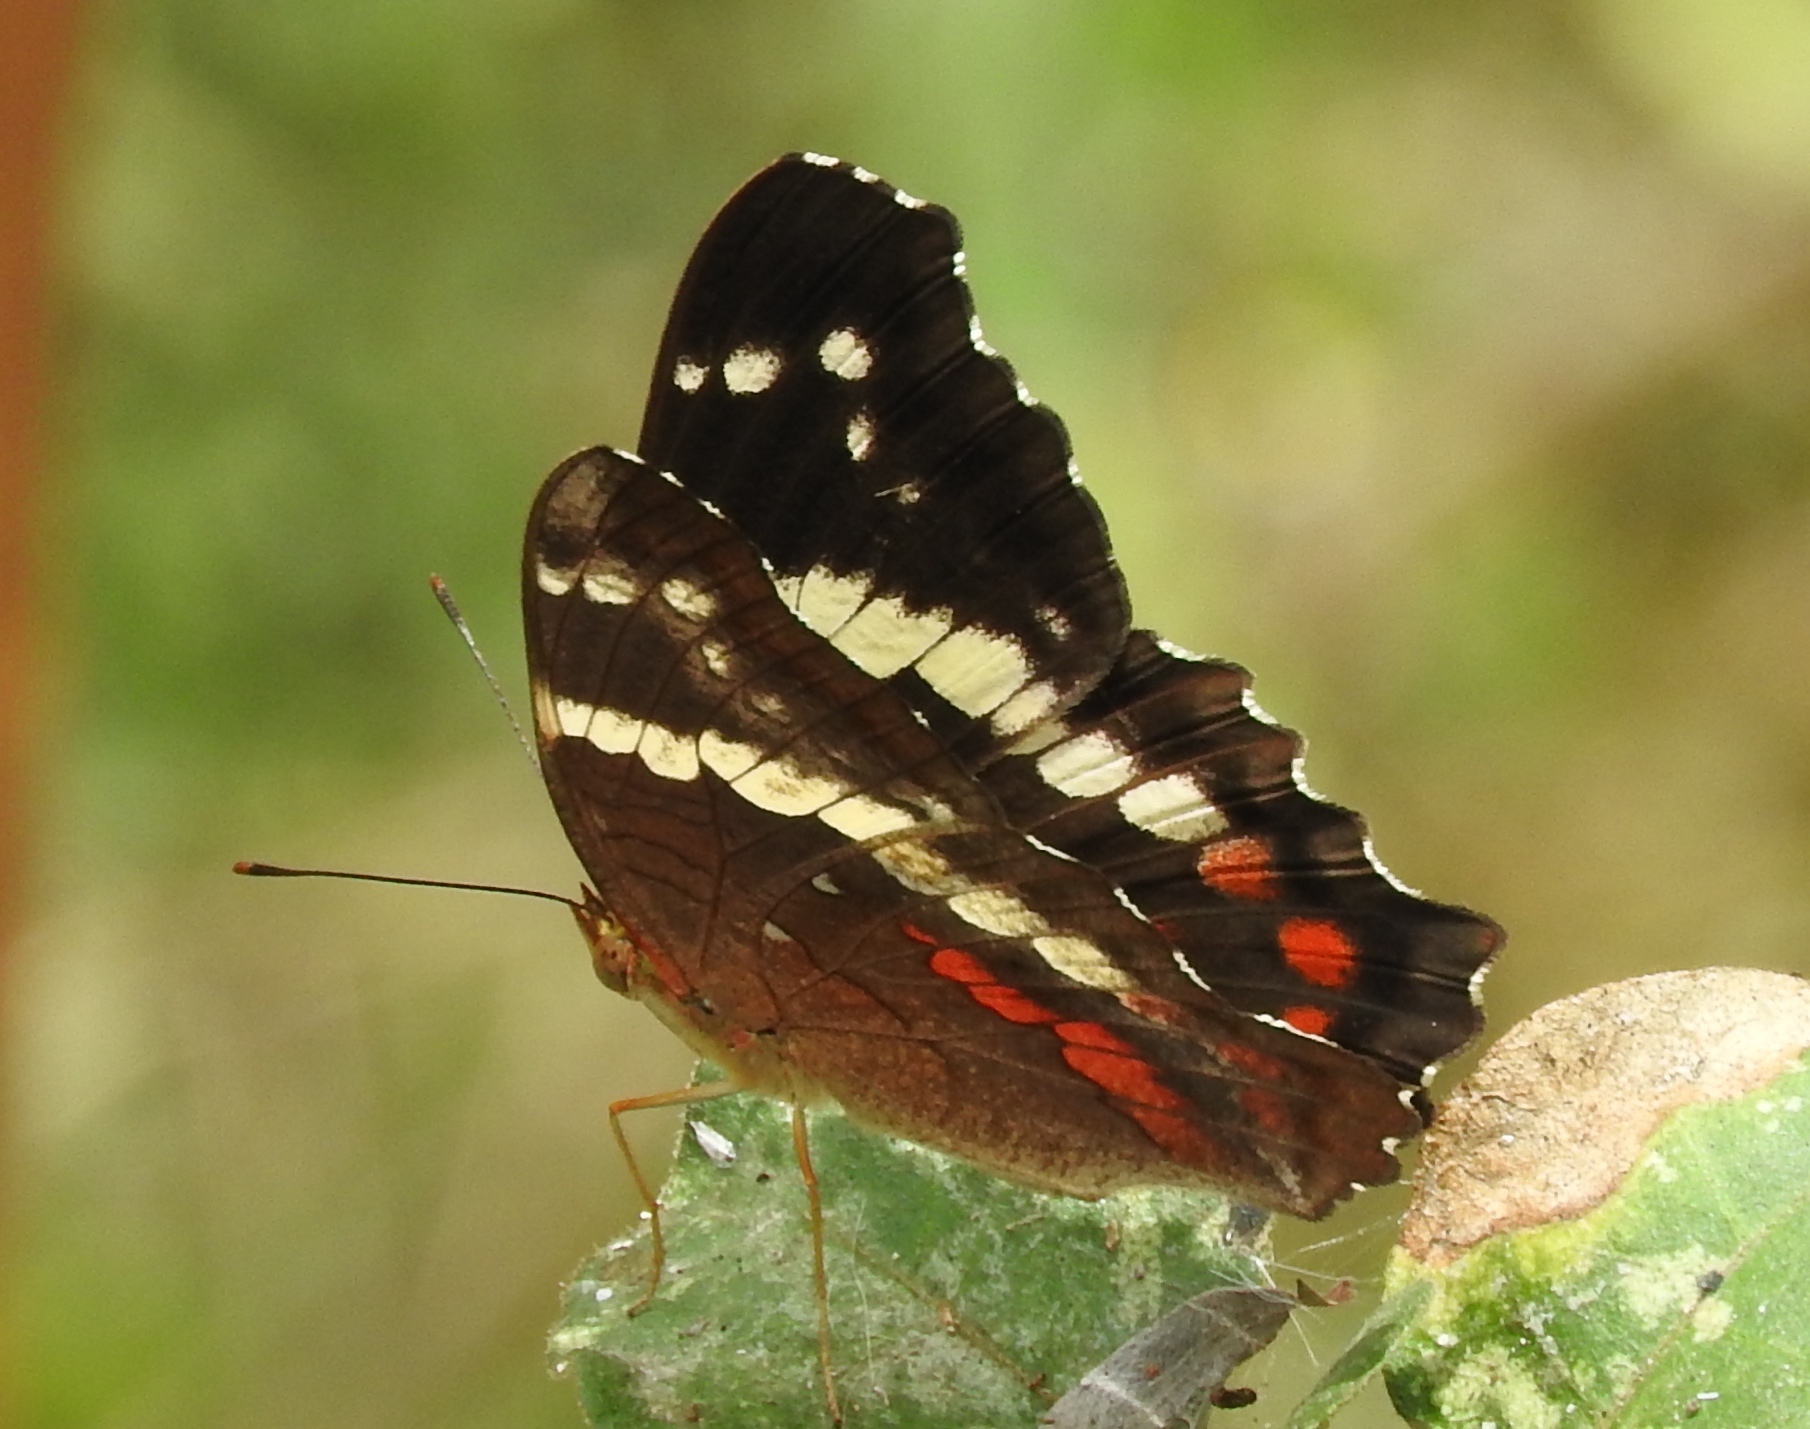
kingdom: Animalia
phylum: Arthropoda
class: Insecta
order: Lepidoptera
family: Nymphalidae
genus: Anartia
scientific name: Anartia fatima
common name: Banded peacock
